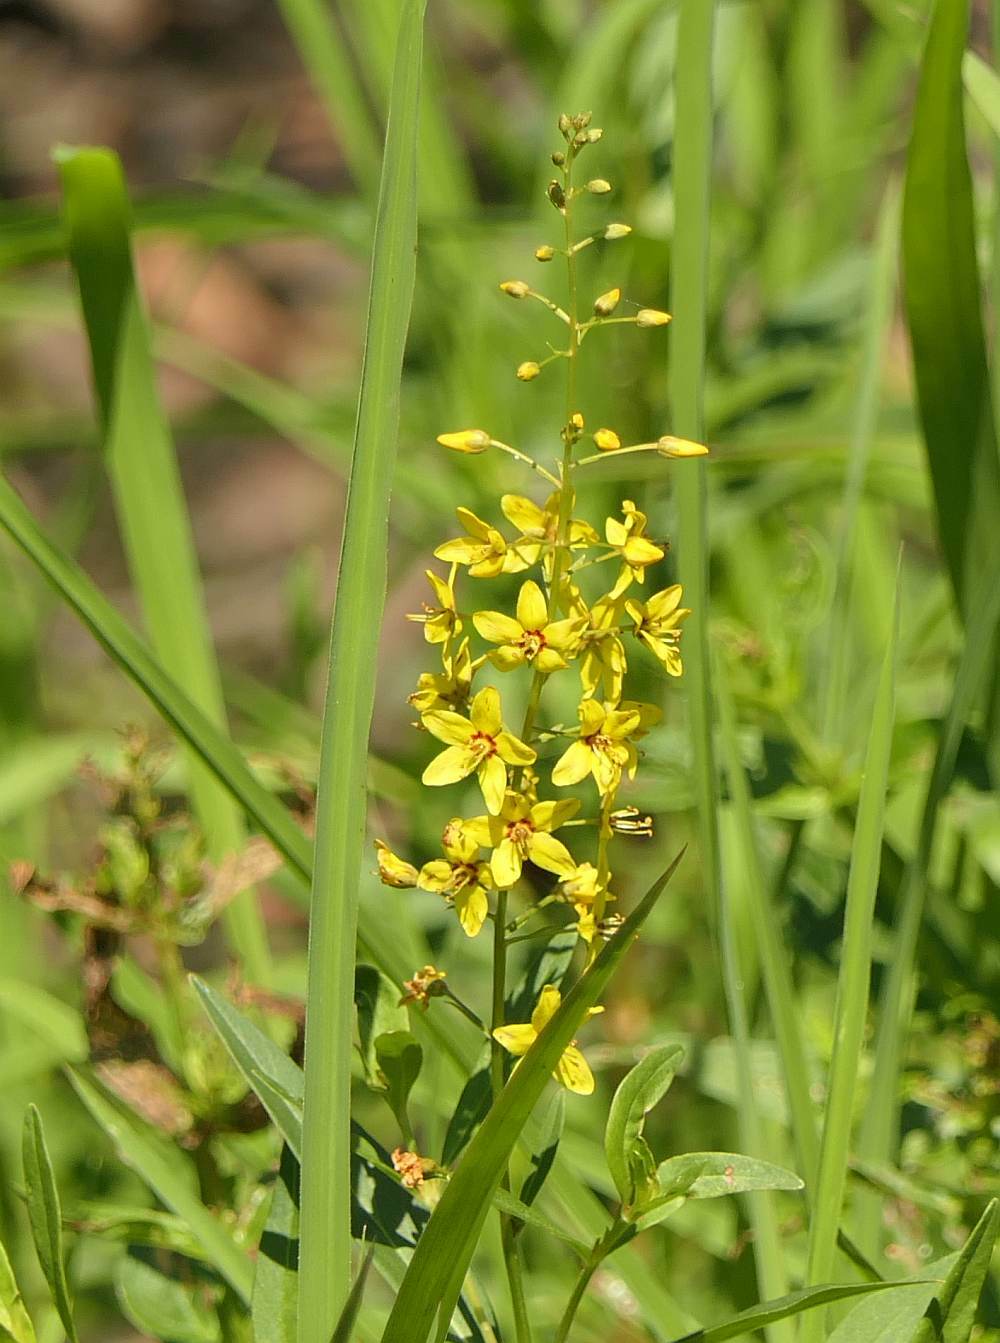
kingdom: Plantae
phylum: Tracheophyta
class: Magnoliopsida
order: Ericales
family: Primulaceae
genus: Lysimachia
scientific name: Lysimachia terrestris
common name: Lake loosestrife
